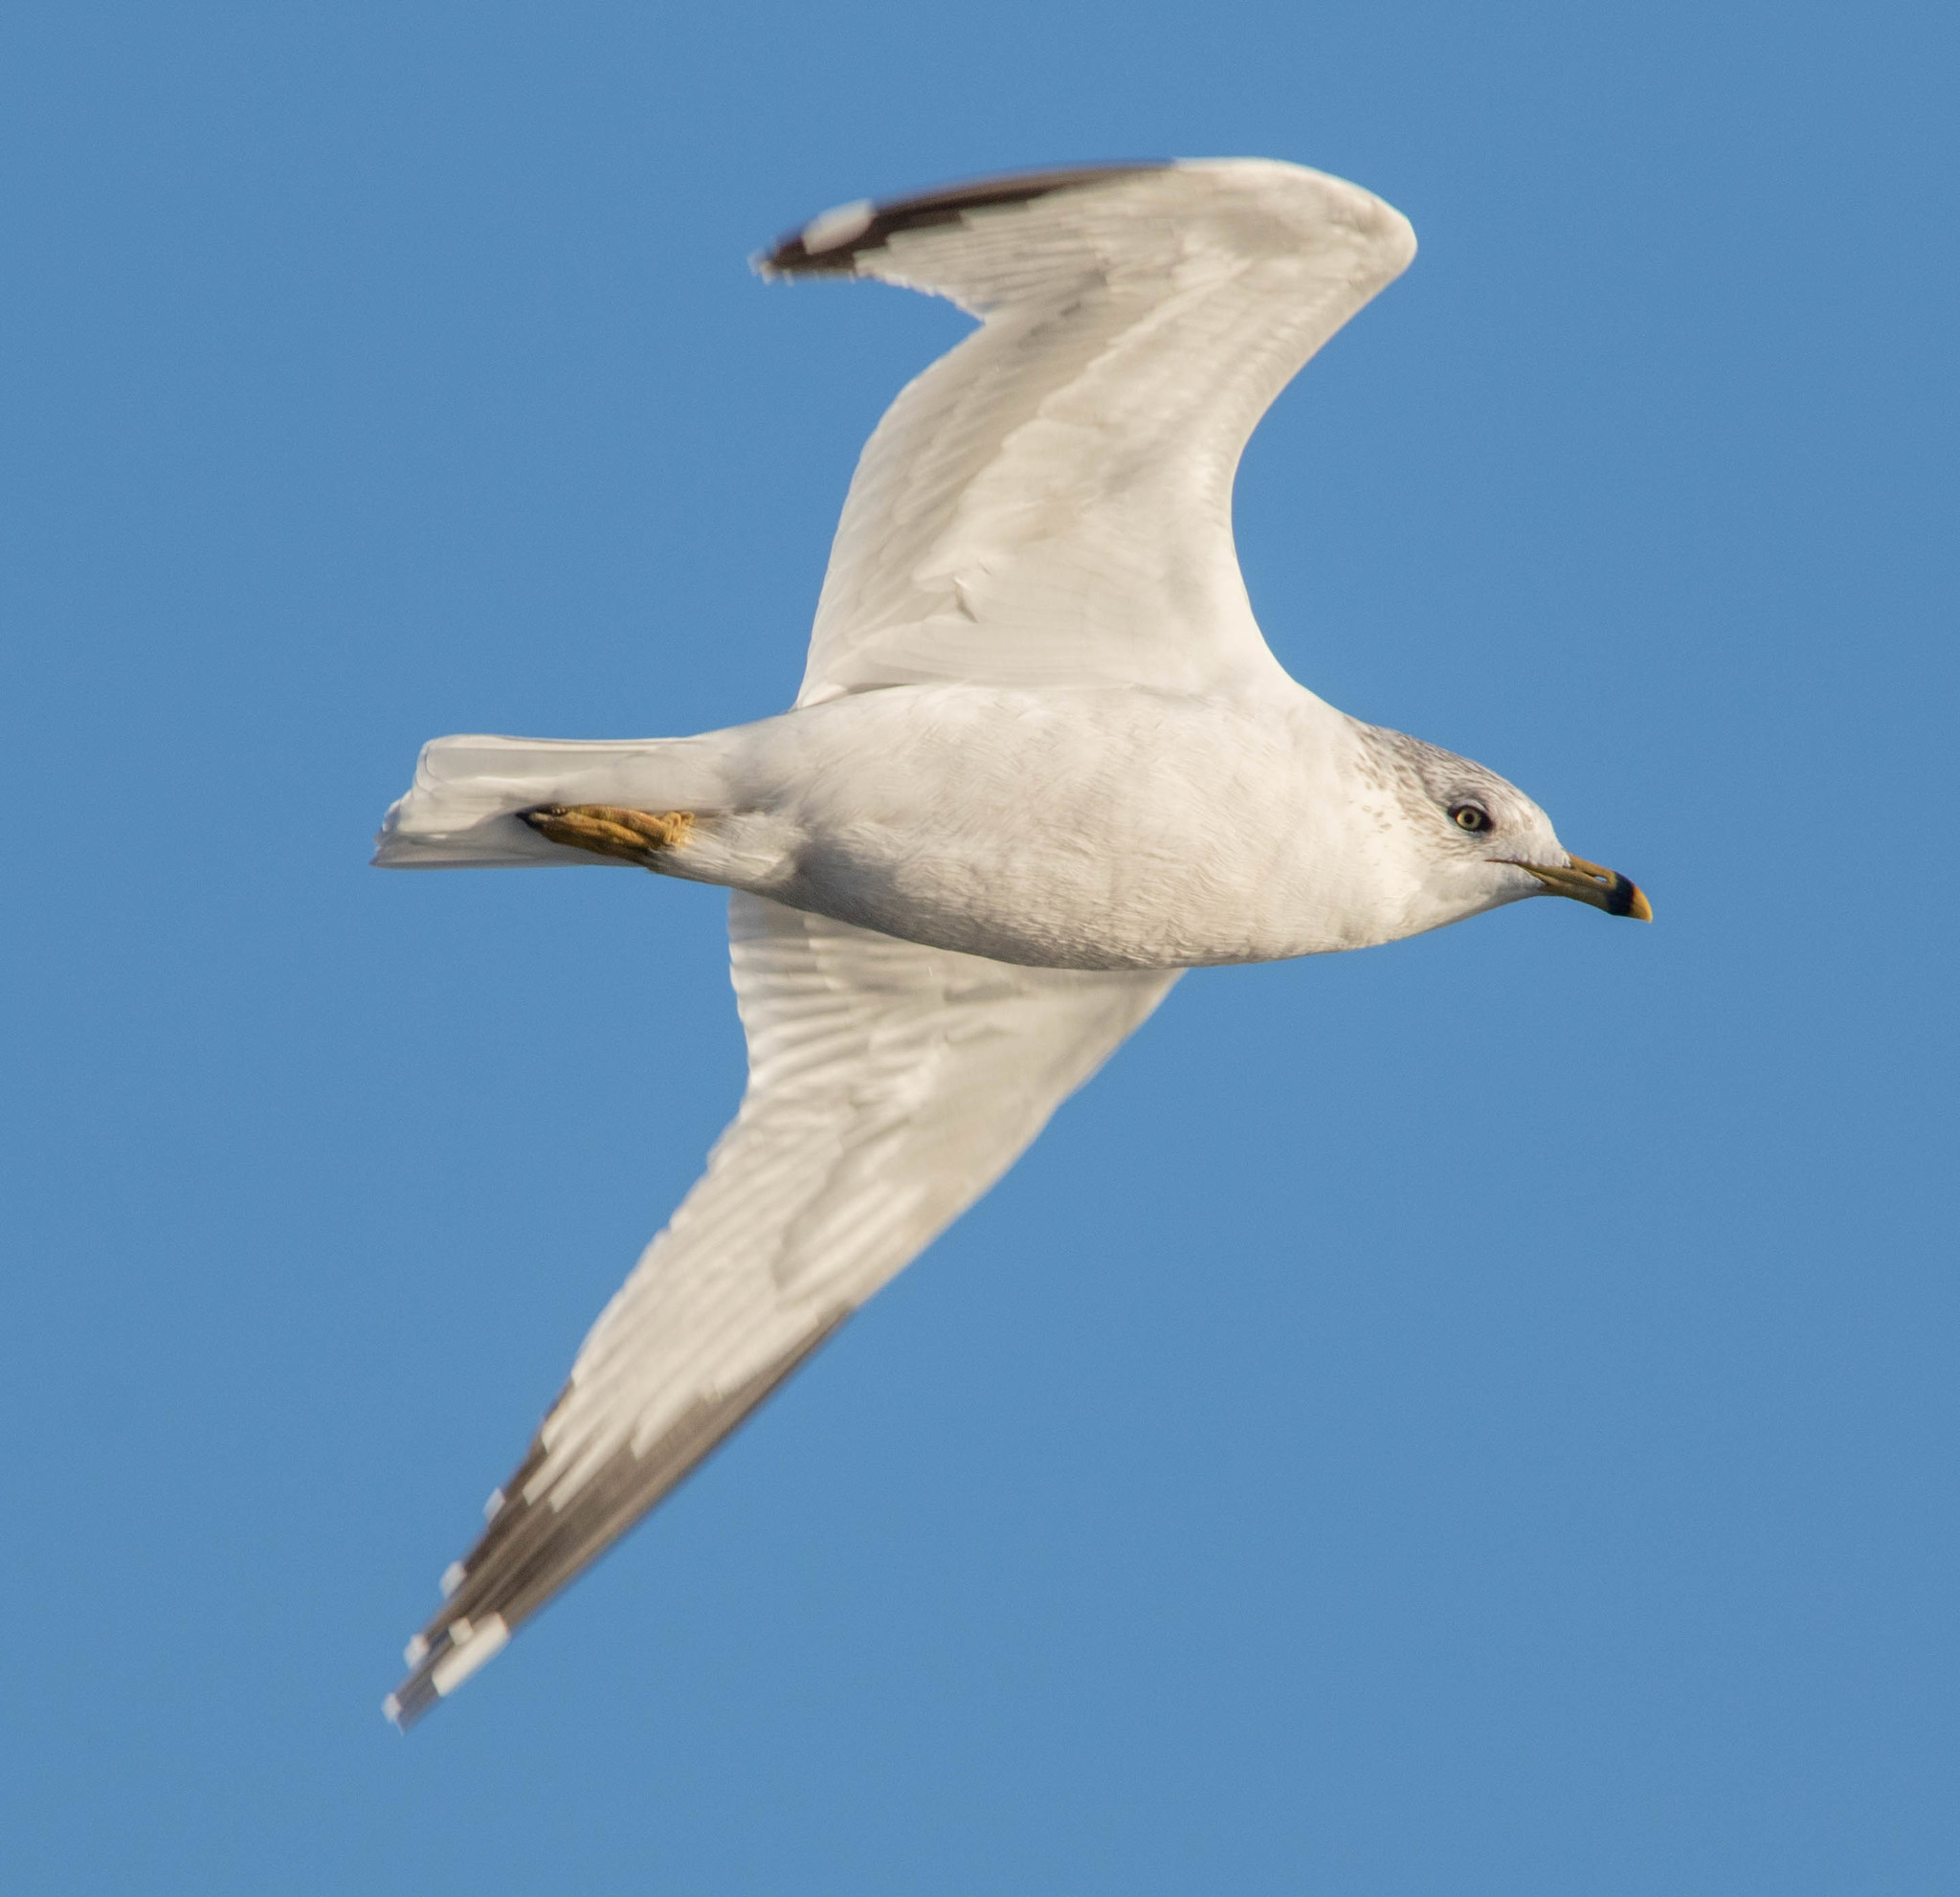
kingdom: Animalia
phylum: Chordata
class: Aves
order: Charadriiformes
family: Laridae
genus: Larus
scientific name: Larus delawarensis
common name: Ring-billed gull
